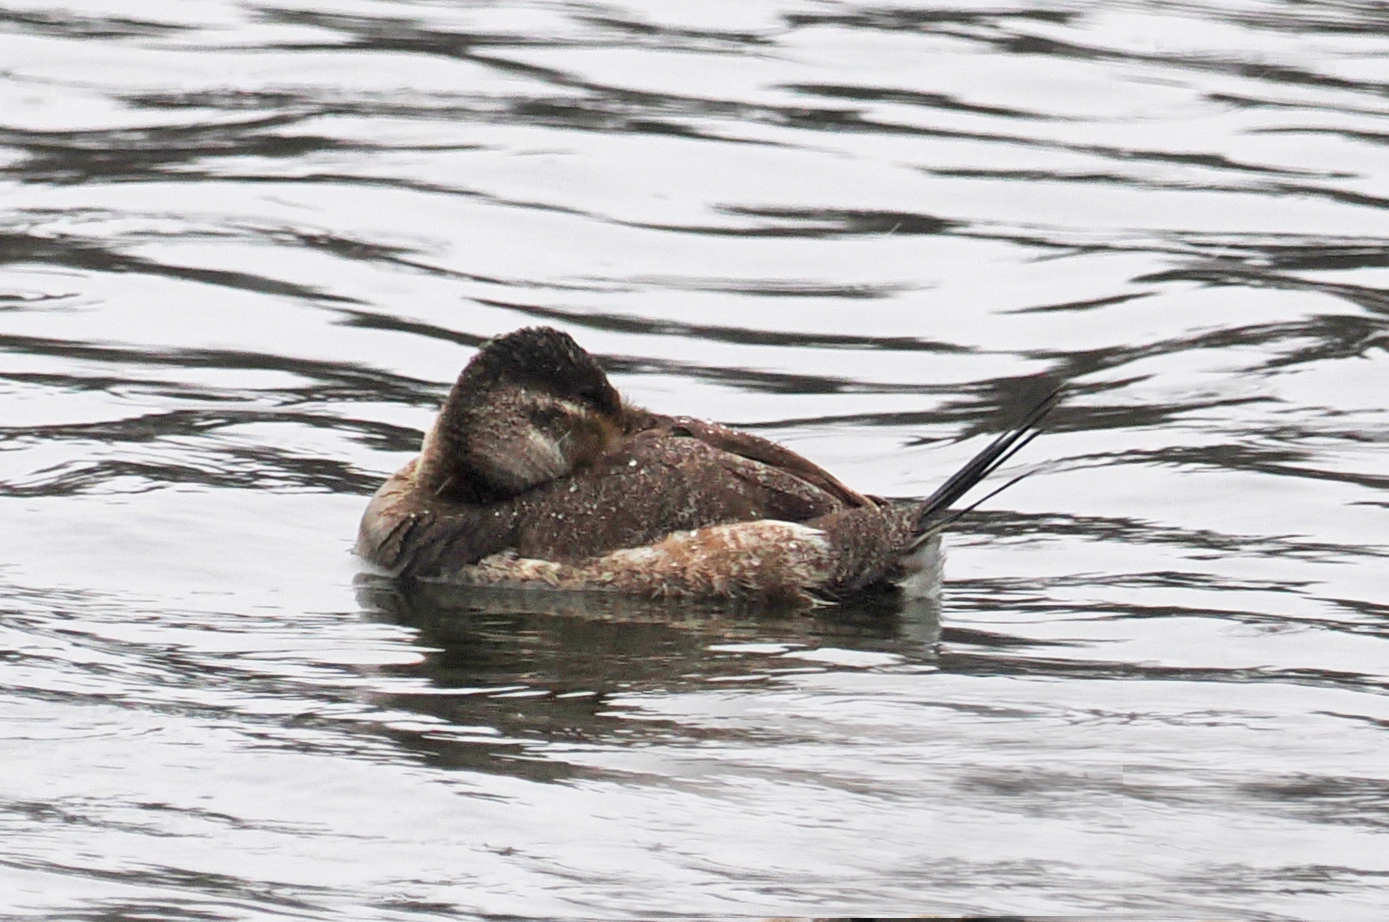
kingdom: Animalia
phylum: Chordata
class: Aves
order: Anseriformes
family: Anatidae
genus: Oxyura
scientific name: Oxyura jamaicensis
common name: Ruddy duck
